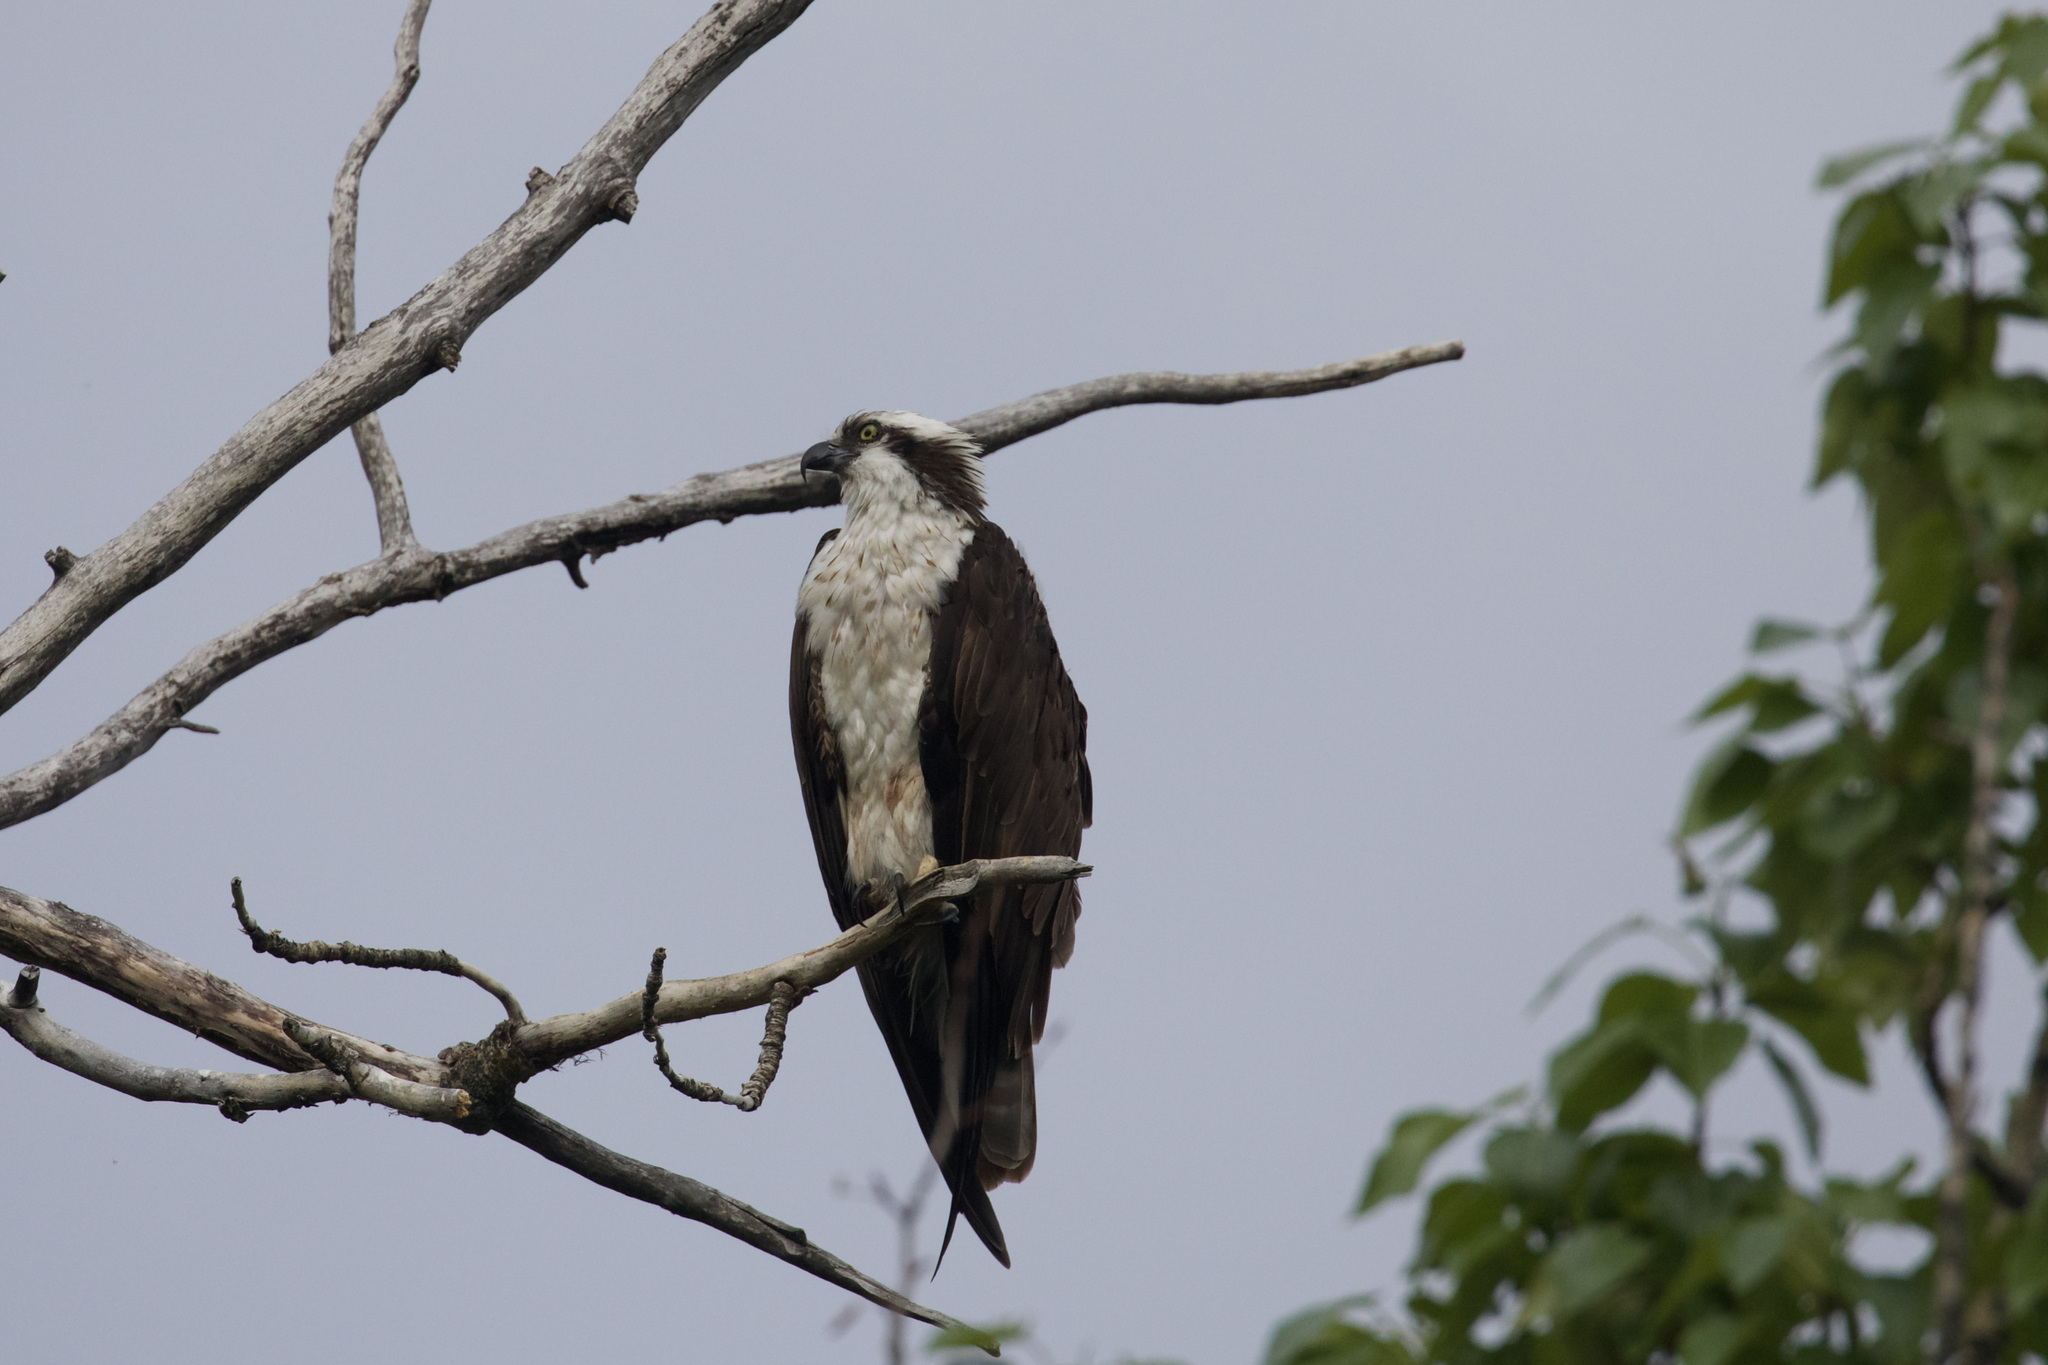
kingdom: Animalia
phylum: Chordata
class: Aves
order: Accipitriformes
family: Pandionidae
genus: Pandion
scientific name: Pandion haliaetus
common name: Osprey
